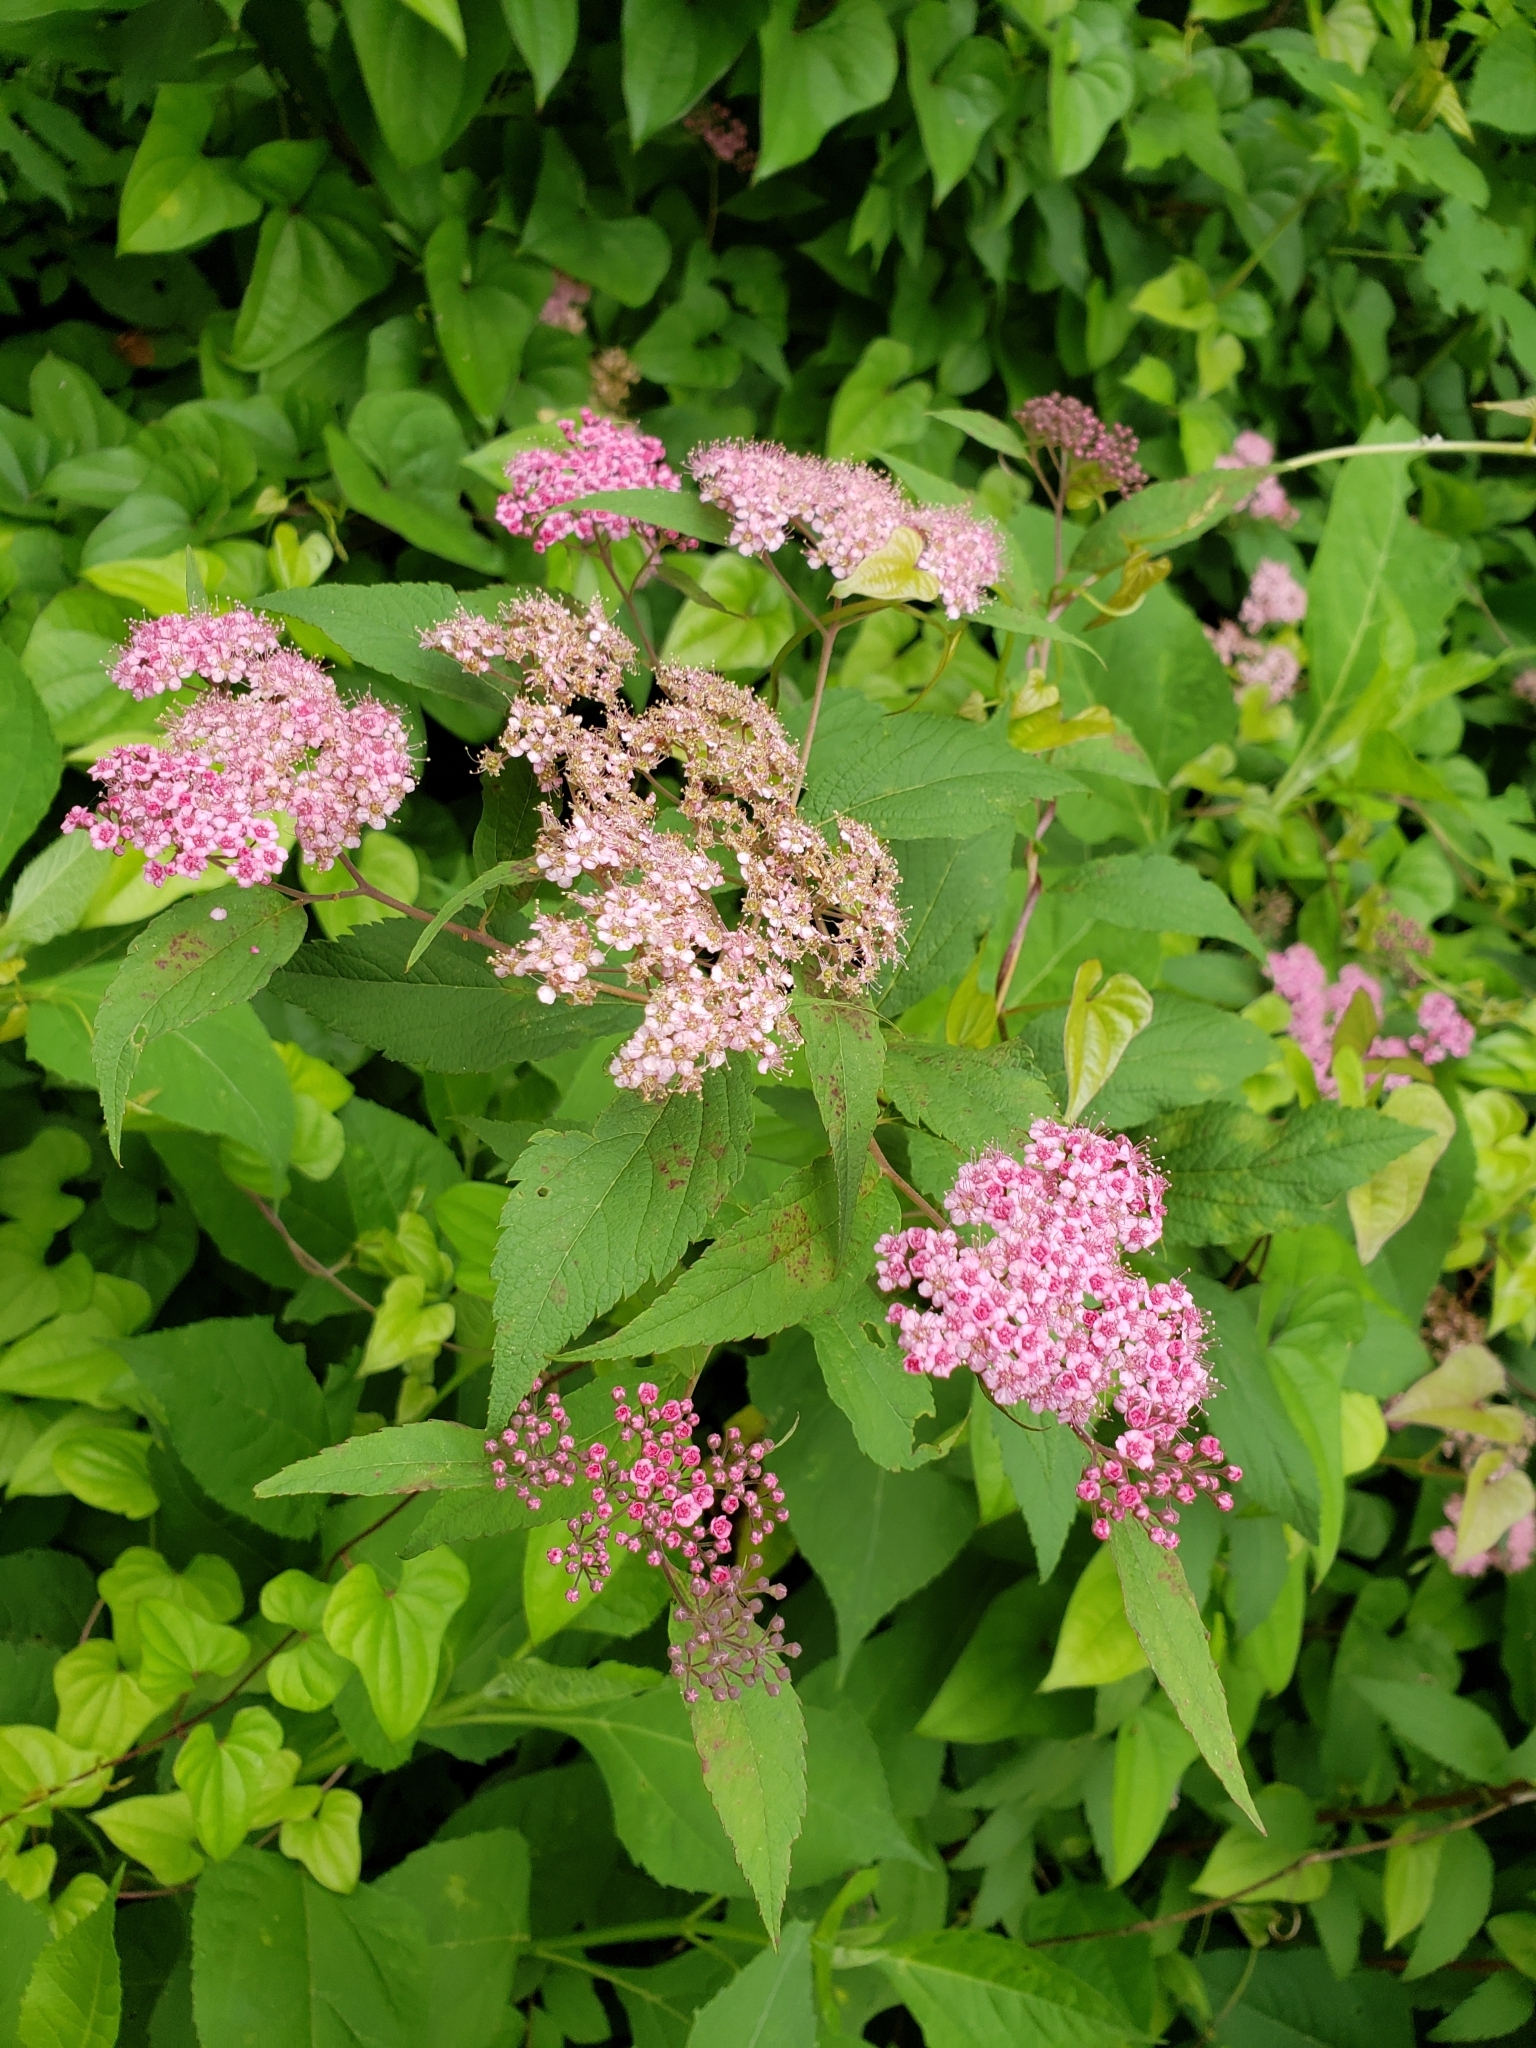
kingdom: Plantae
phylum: Tracheophyta
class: Magnoliopsida
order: Rosales
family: Rosaceae
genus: Spiraea
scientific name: Spiraea japonica
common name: Japanese spiraea
